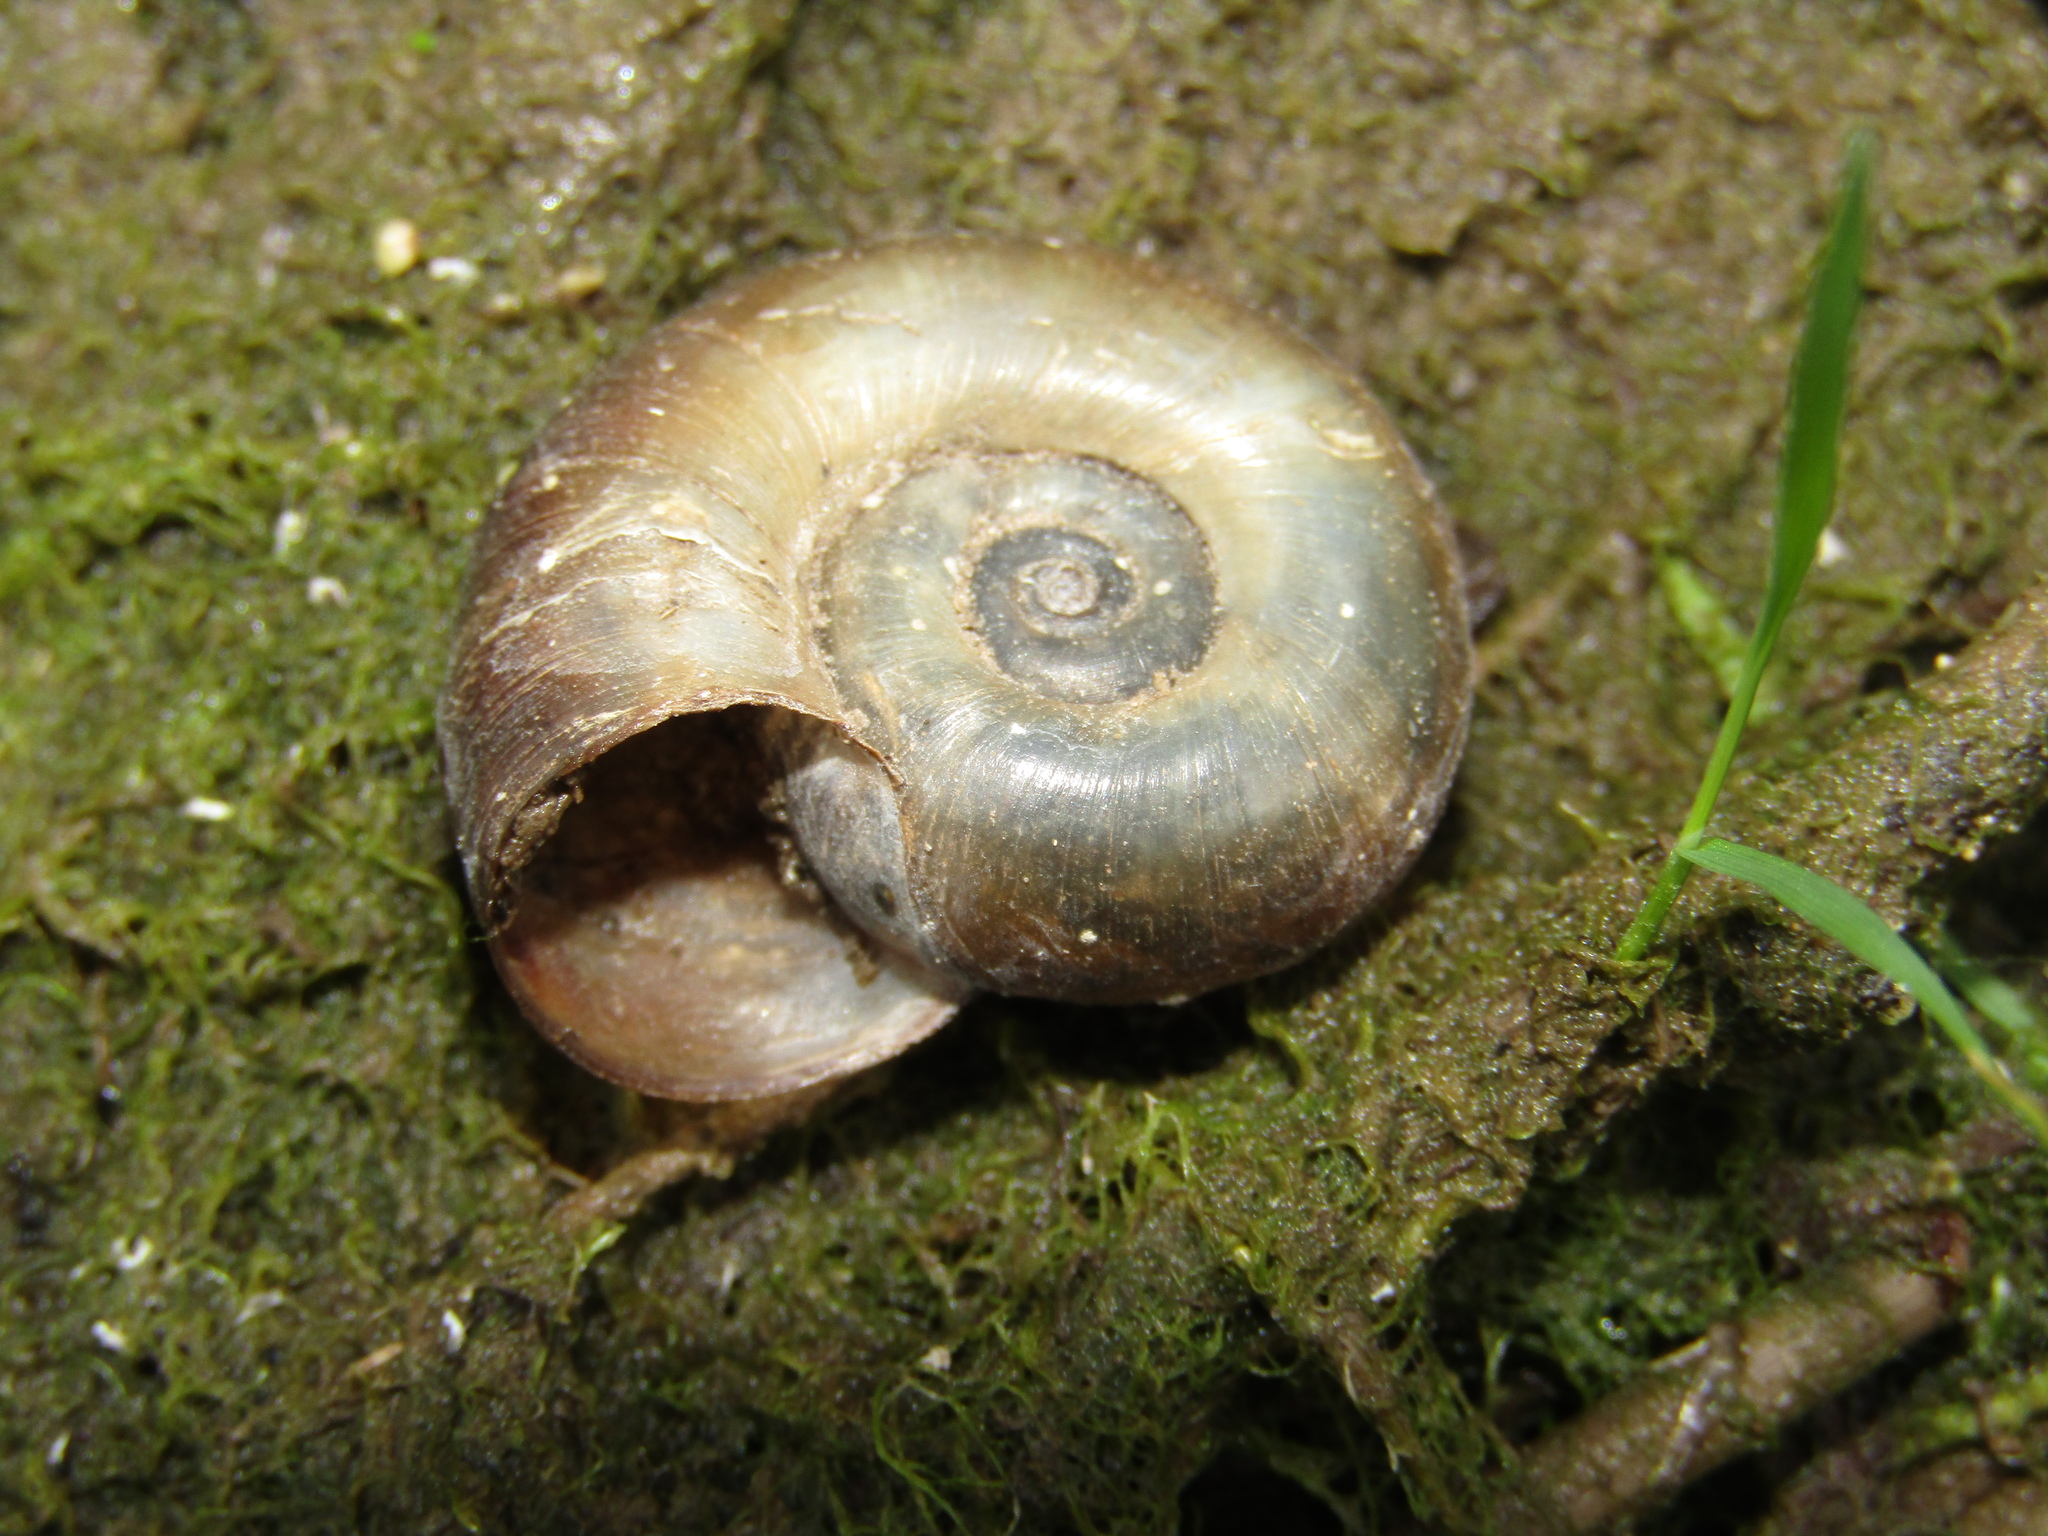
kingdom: Animalia
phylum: Mollusca
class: Gastropoda
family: Planorbidae
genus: Planorbarius
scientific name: Planorbarius corneus
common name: Great ramshorn
